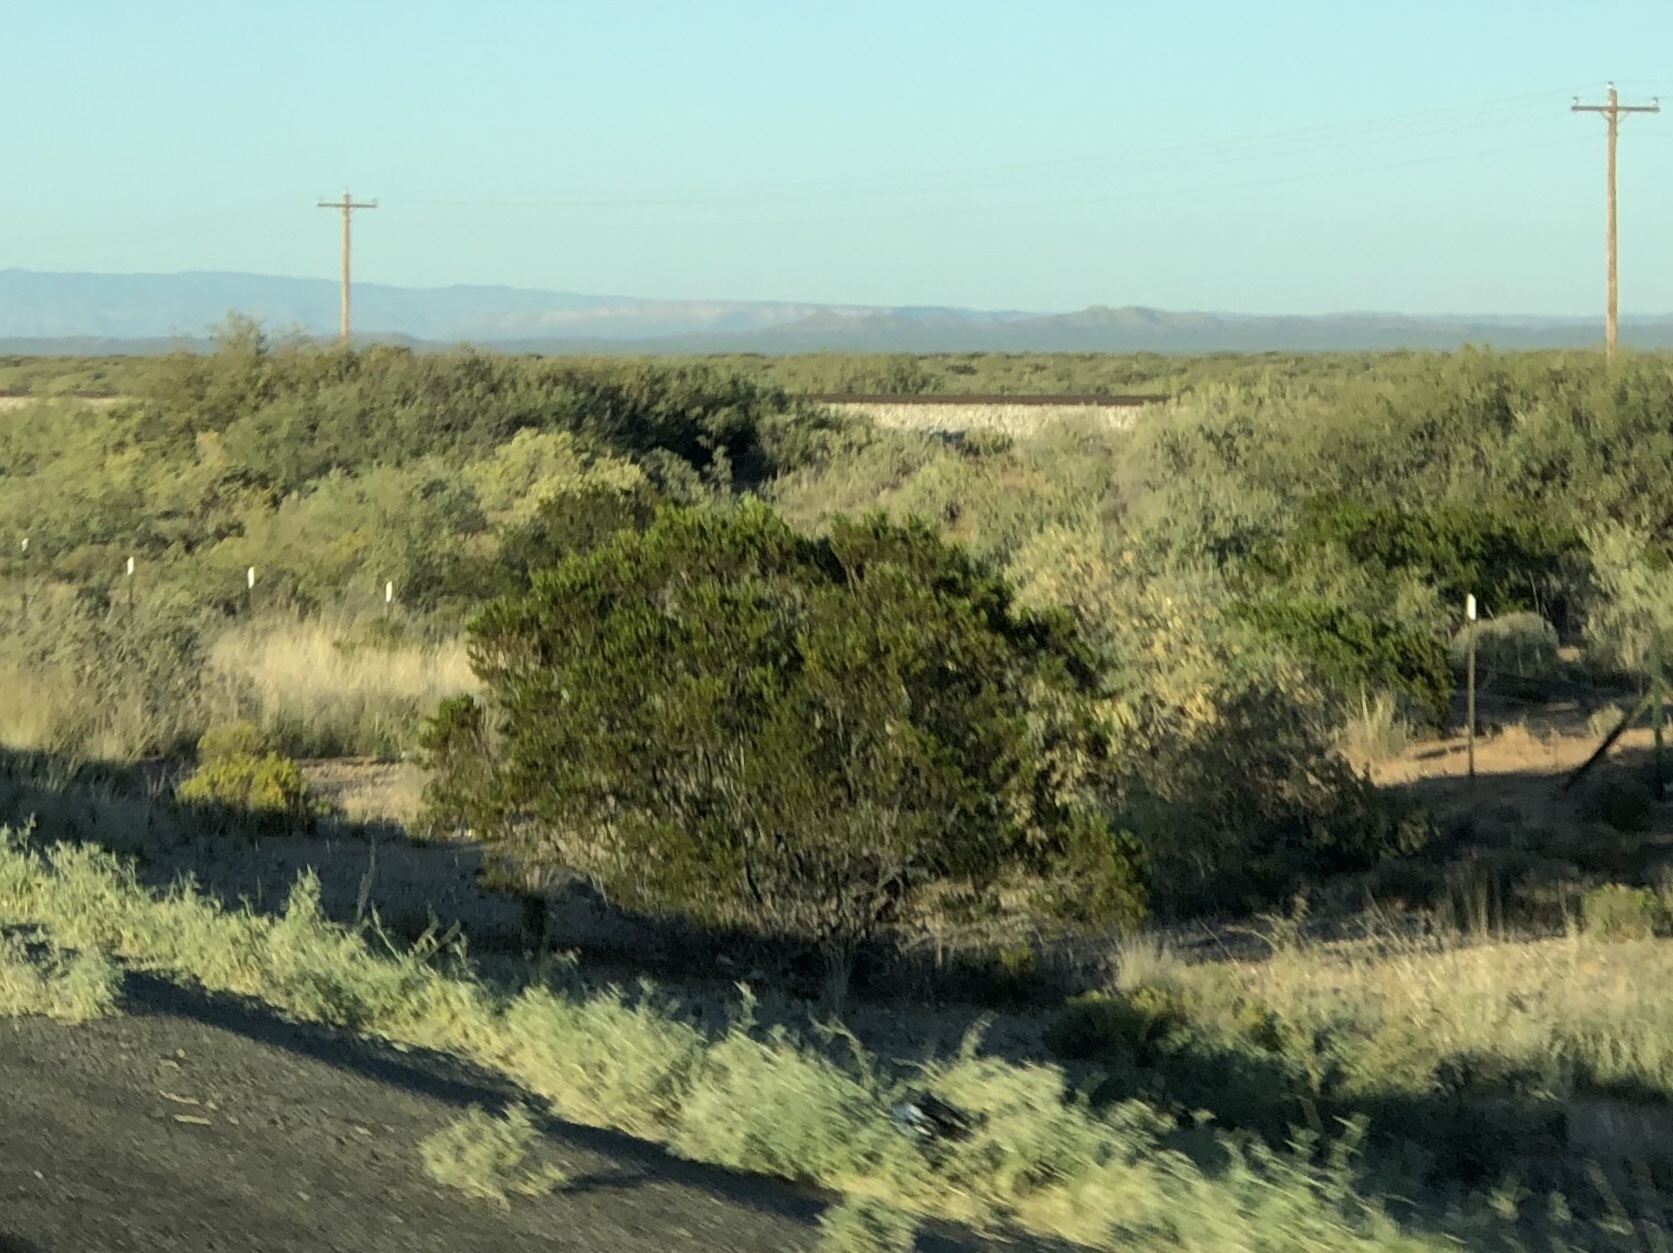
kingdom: Plantae
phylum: Tracheophyta
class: Magnoliopsida
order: Zygophyllales
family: Zygophyllaceae
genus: Larrea
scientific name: Larrea tridentata
